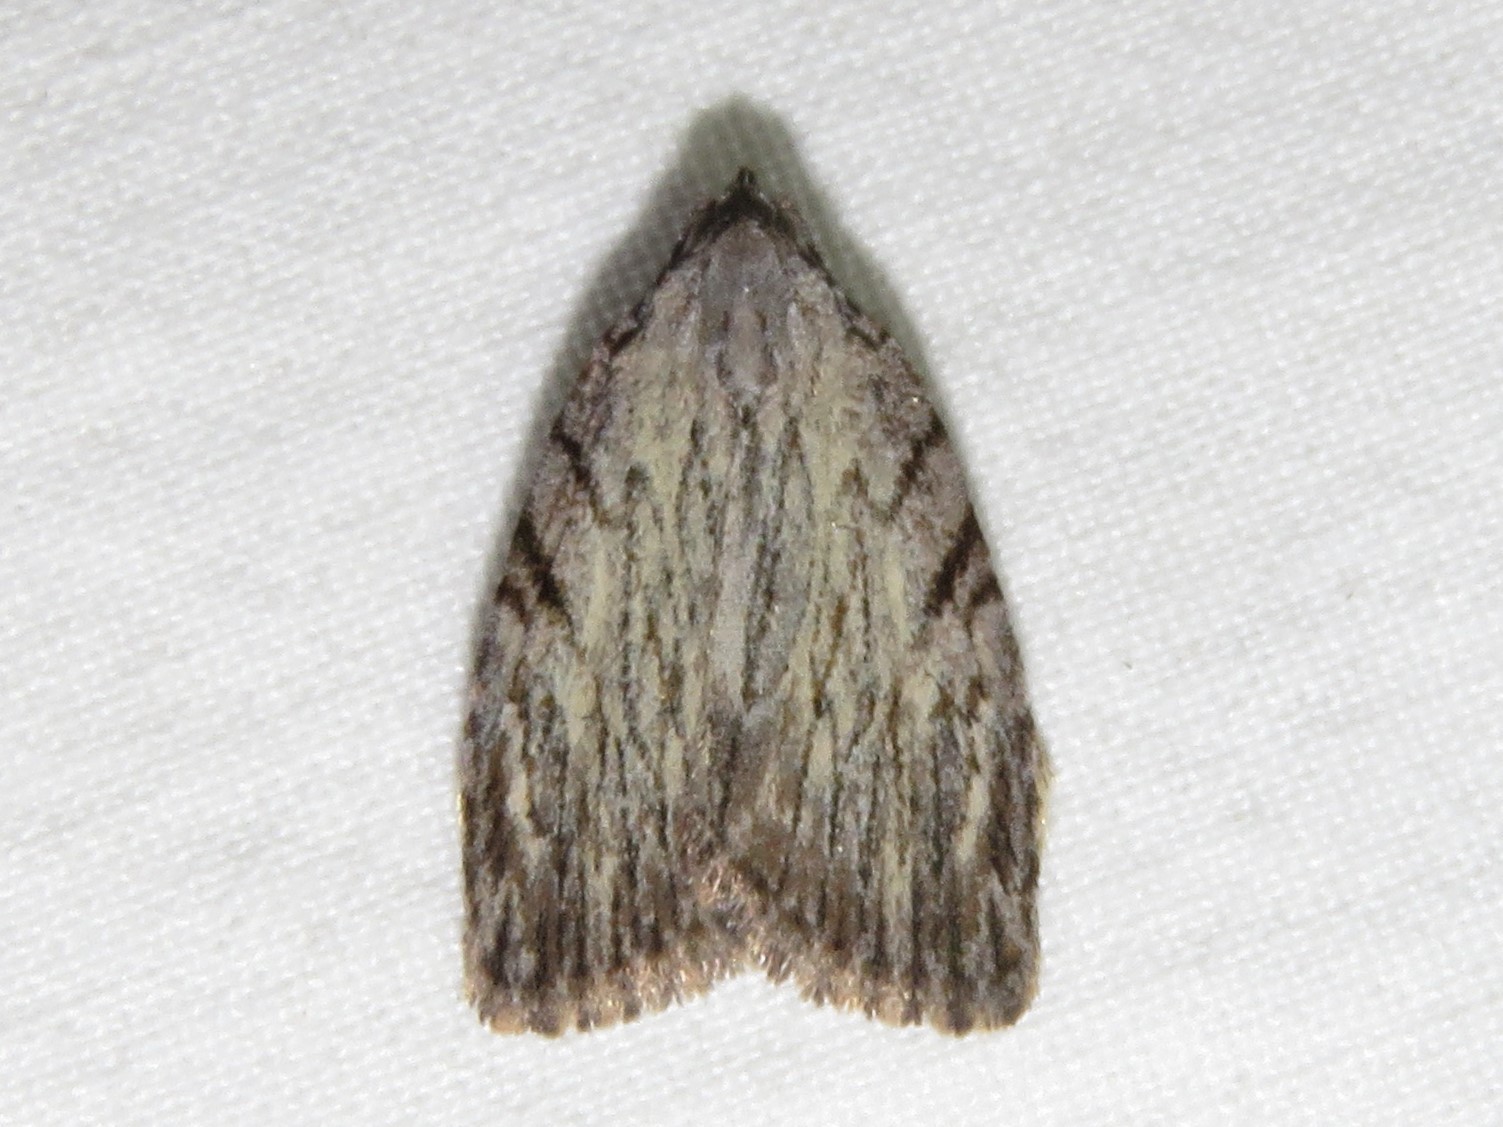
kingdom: Animalia
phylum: Arthropoda
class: Insecta
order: Lepidoptera
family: Noctuidae
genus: Balsa
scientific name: Balsa tristrigella
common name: Three-lined balsa moth
